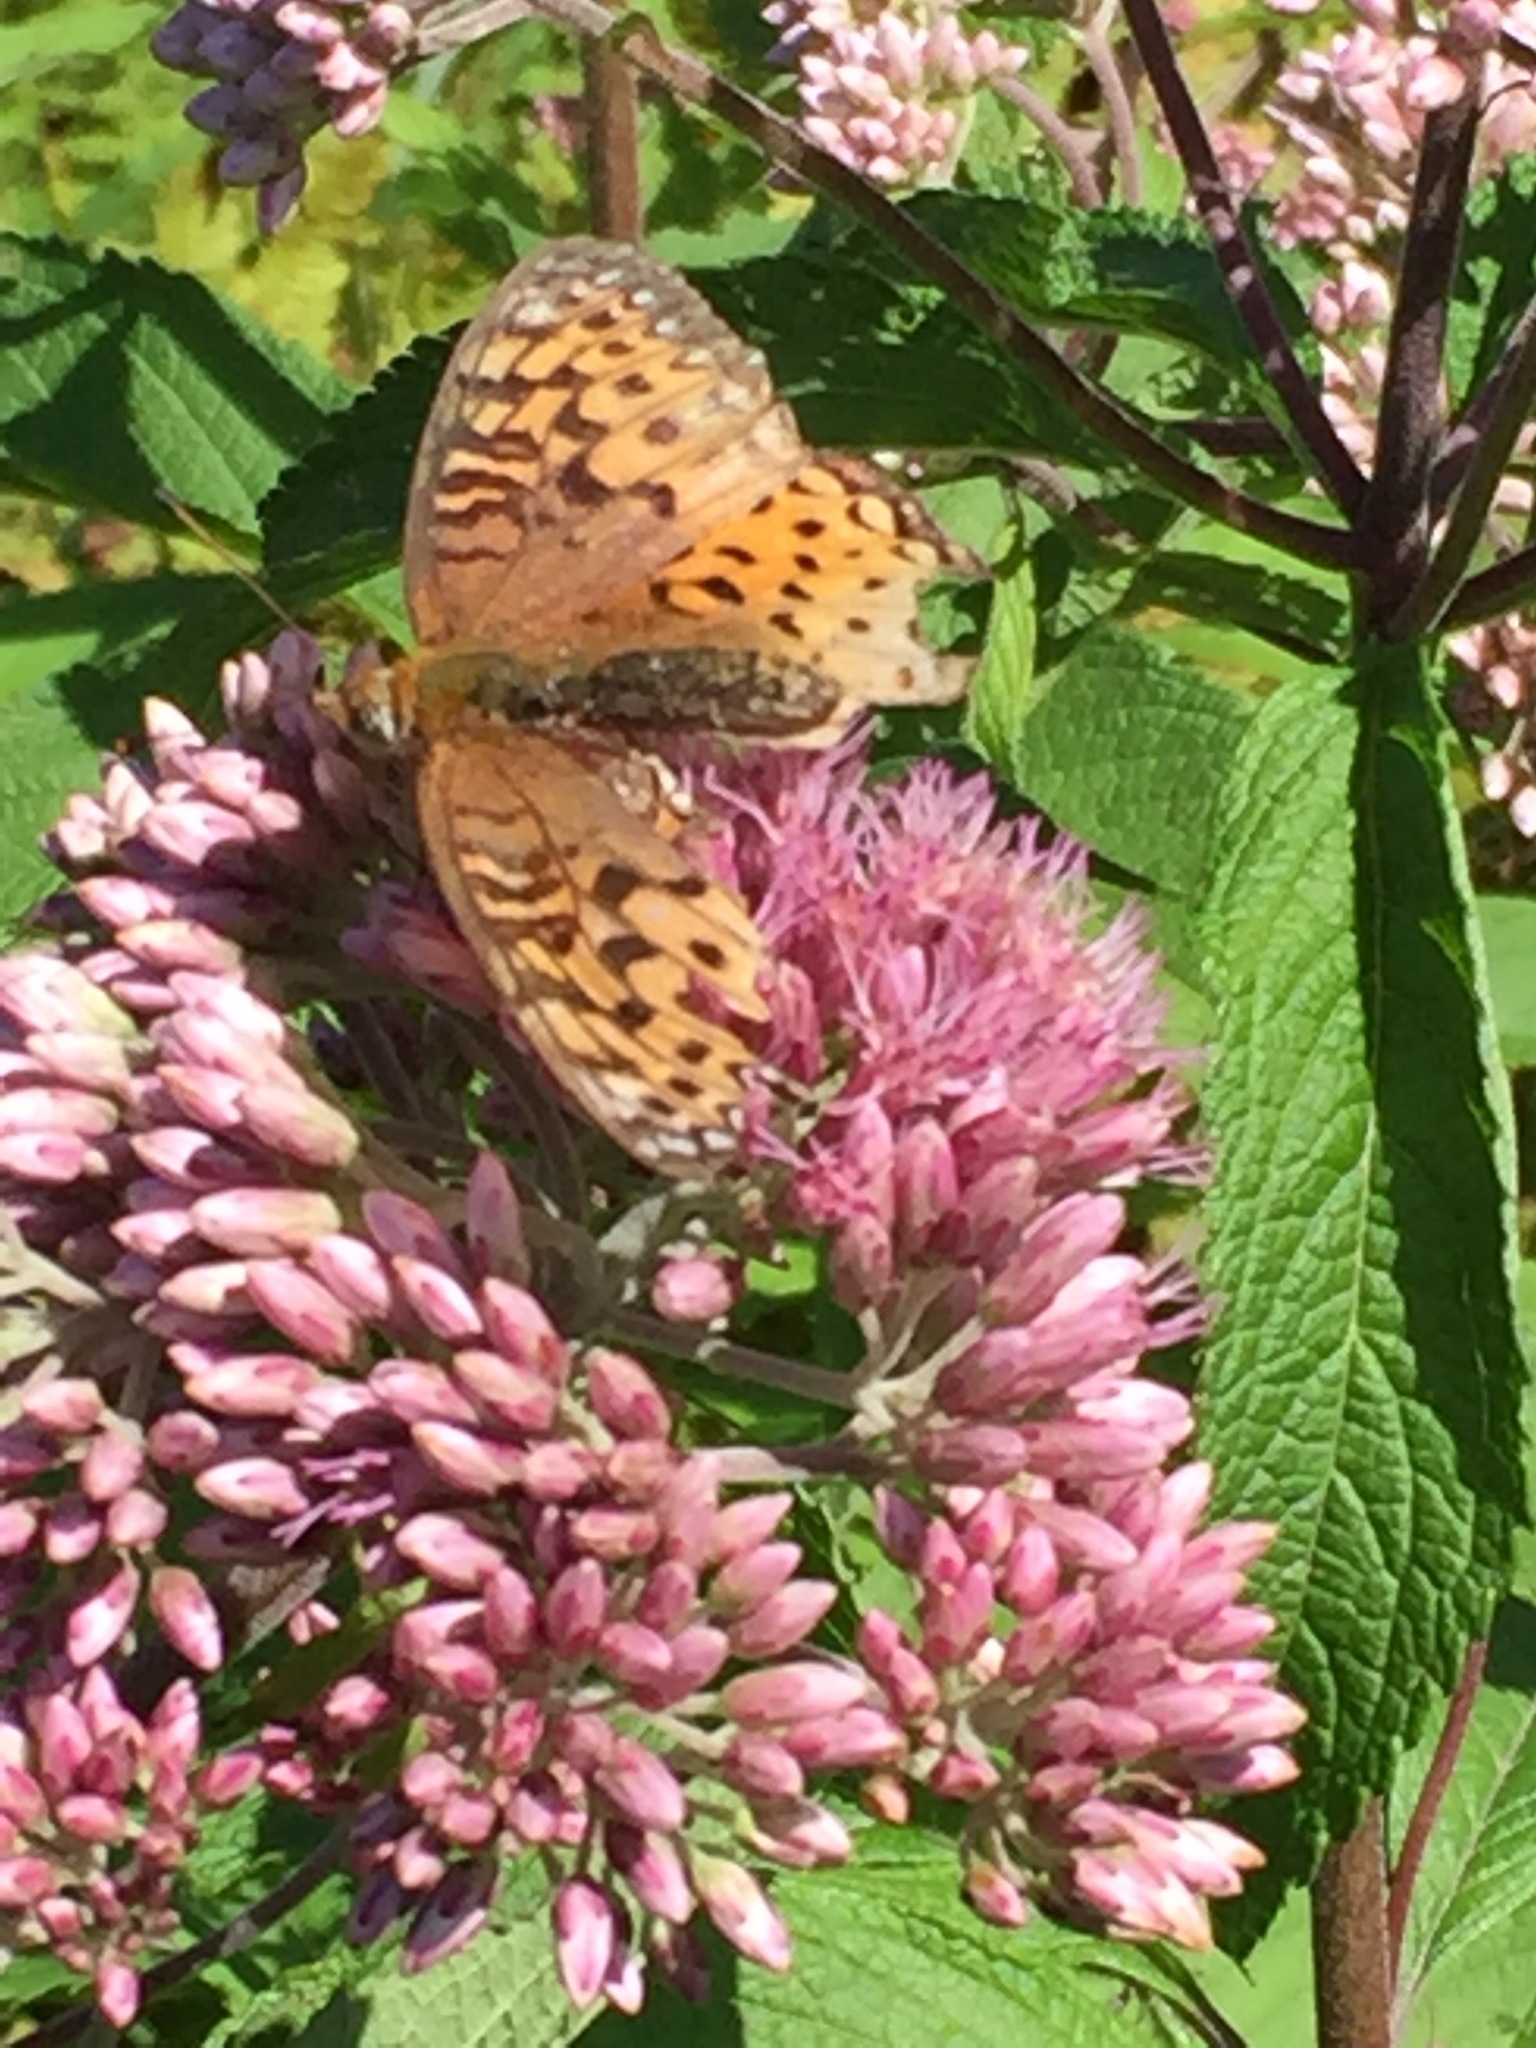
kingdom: Animalia
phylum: Arthropoda
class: Insecta
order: Lepidoptera
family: Nymphalidae
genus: Speyeria
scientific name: Speyeria atlantis
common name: Atlantis fritillary
